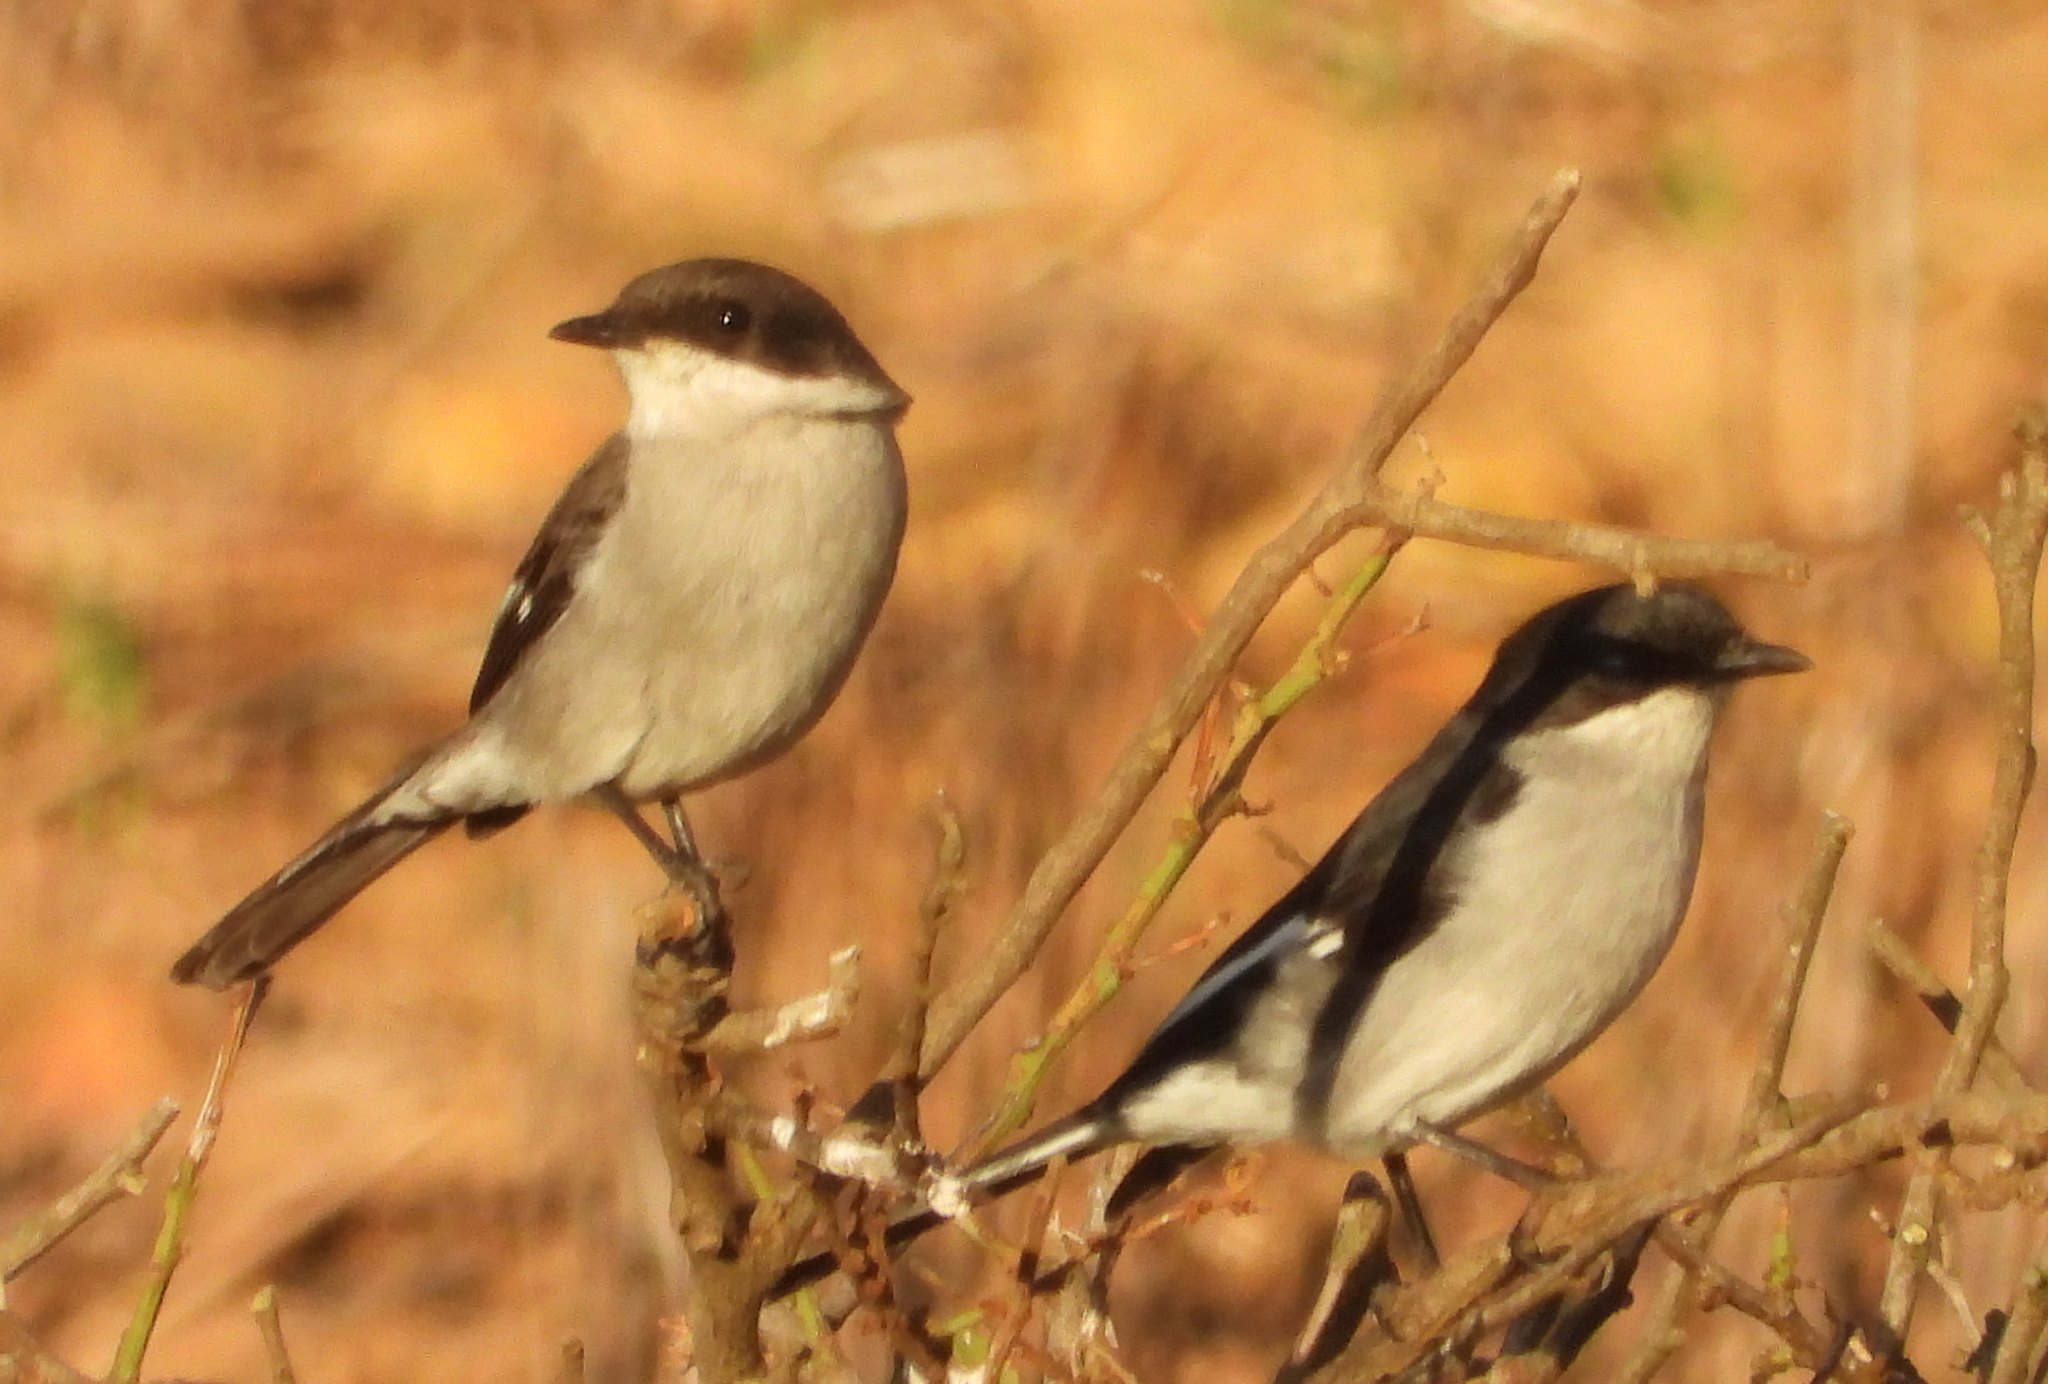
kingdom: Animalia
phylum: Chordata
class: Aves
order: Passeriformes
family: Muscicapidae
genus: Sigelus
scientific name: Sigelus silens
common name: Fiscal flycatcher
